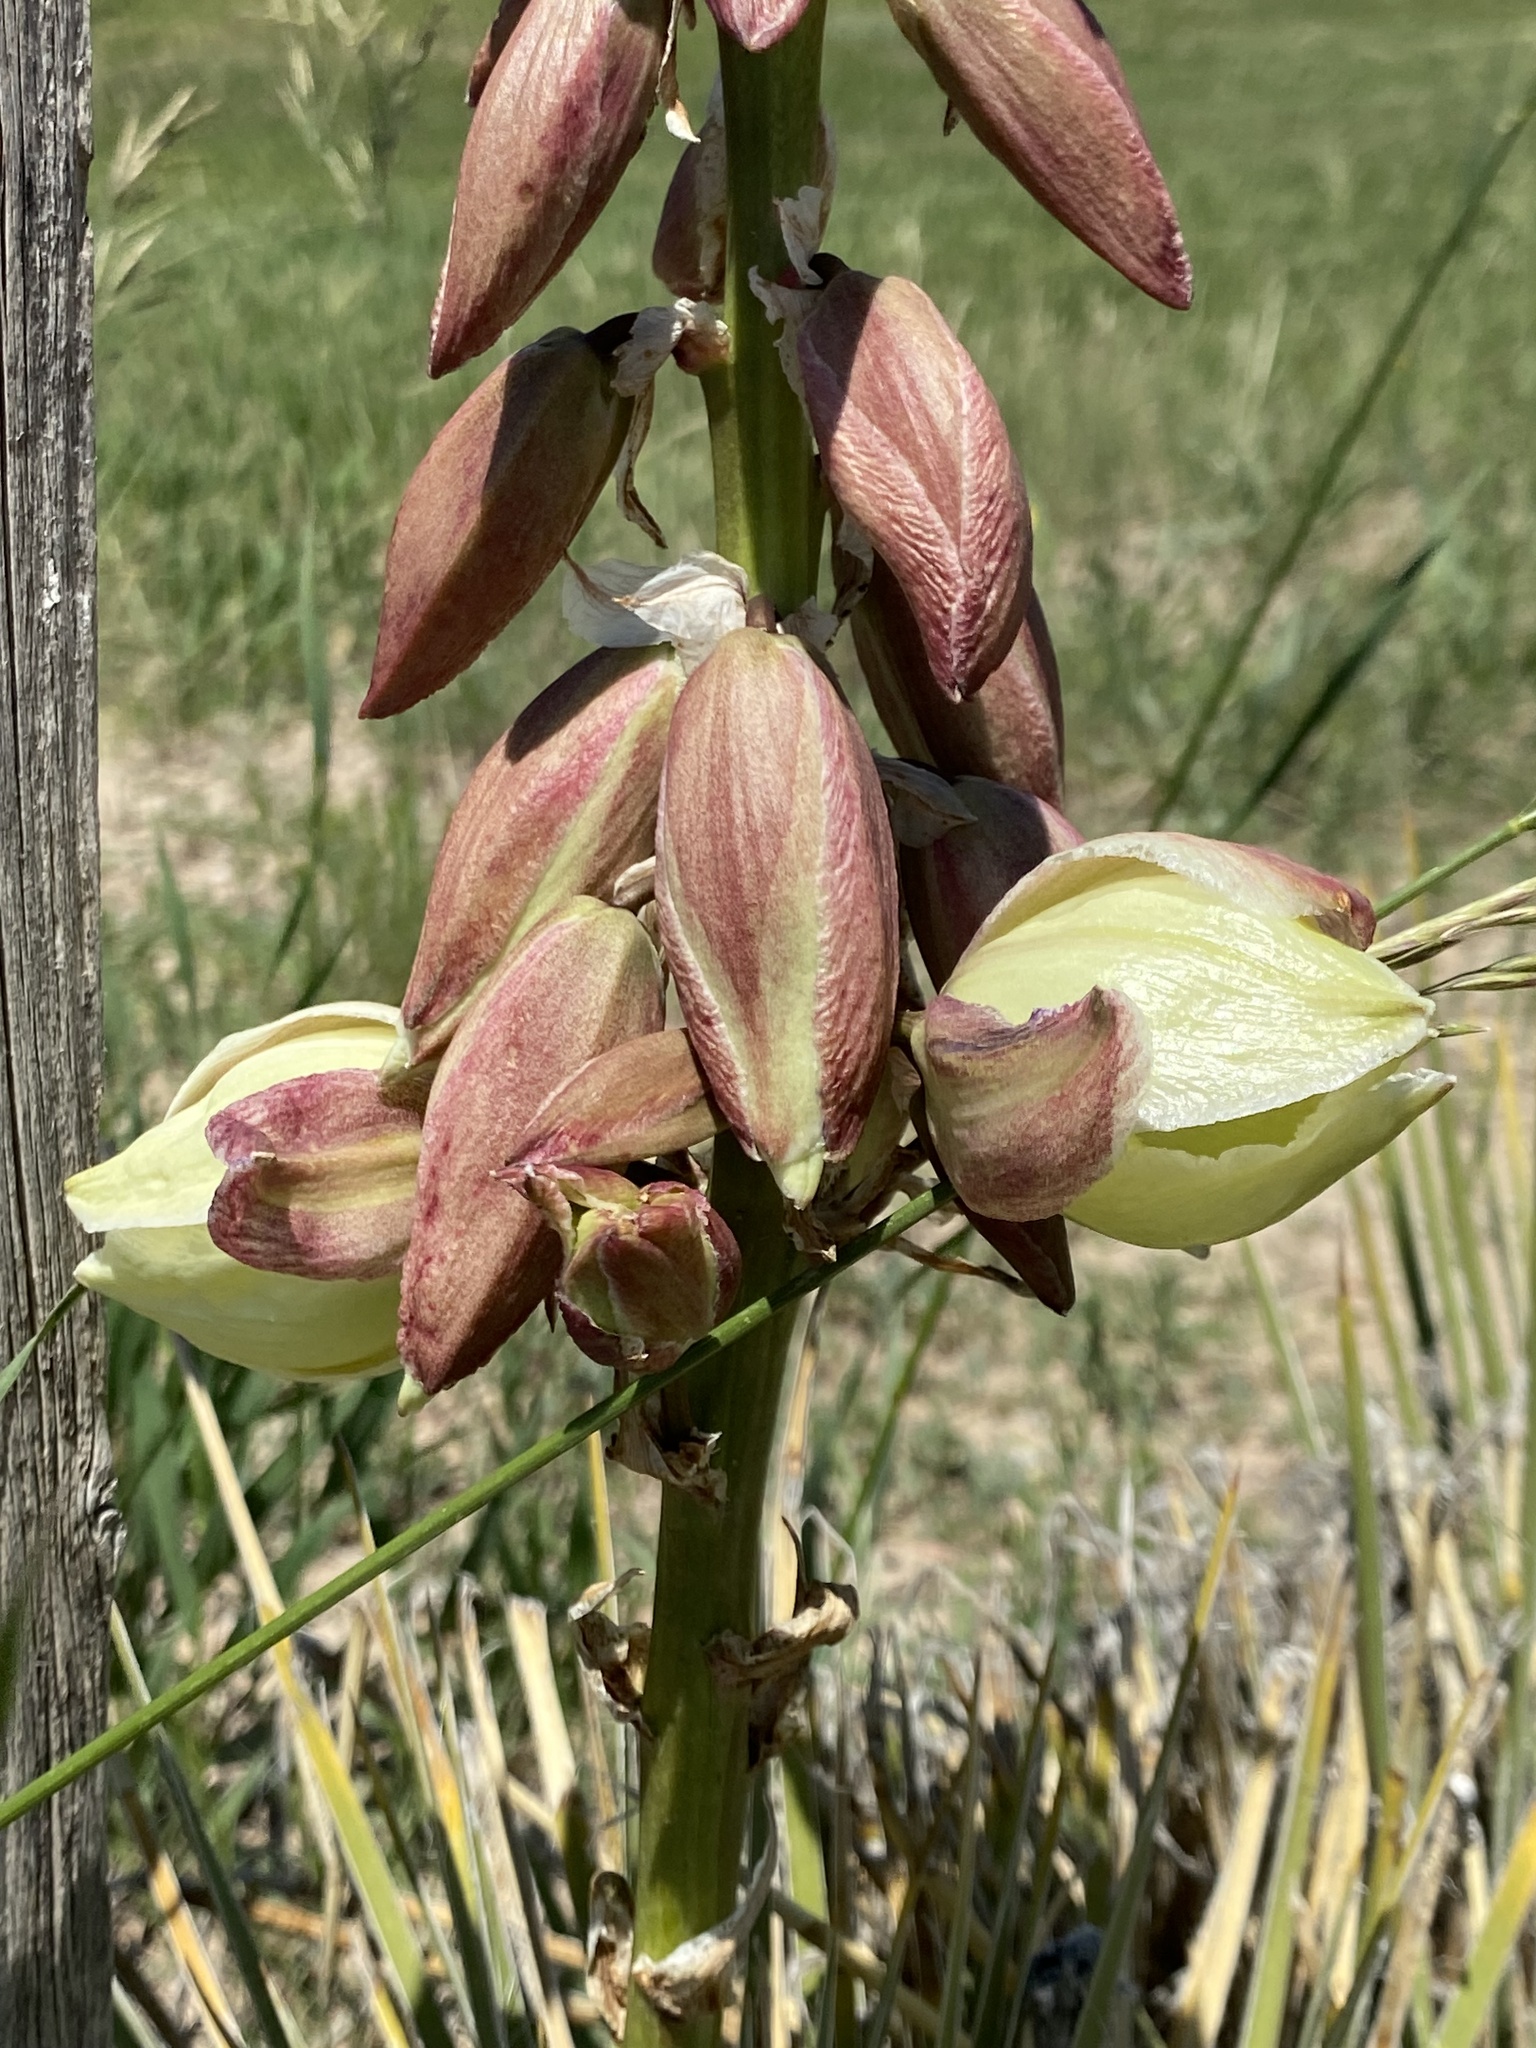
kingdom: Plantae
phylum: Tracheophyta
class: Liliopsida
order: Asparagales
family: Asparagaceae
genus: Yucca
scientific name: Yucca glauca
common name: Great plains yucca
